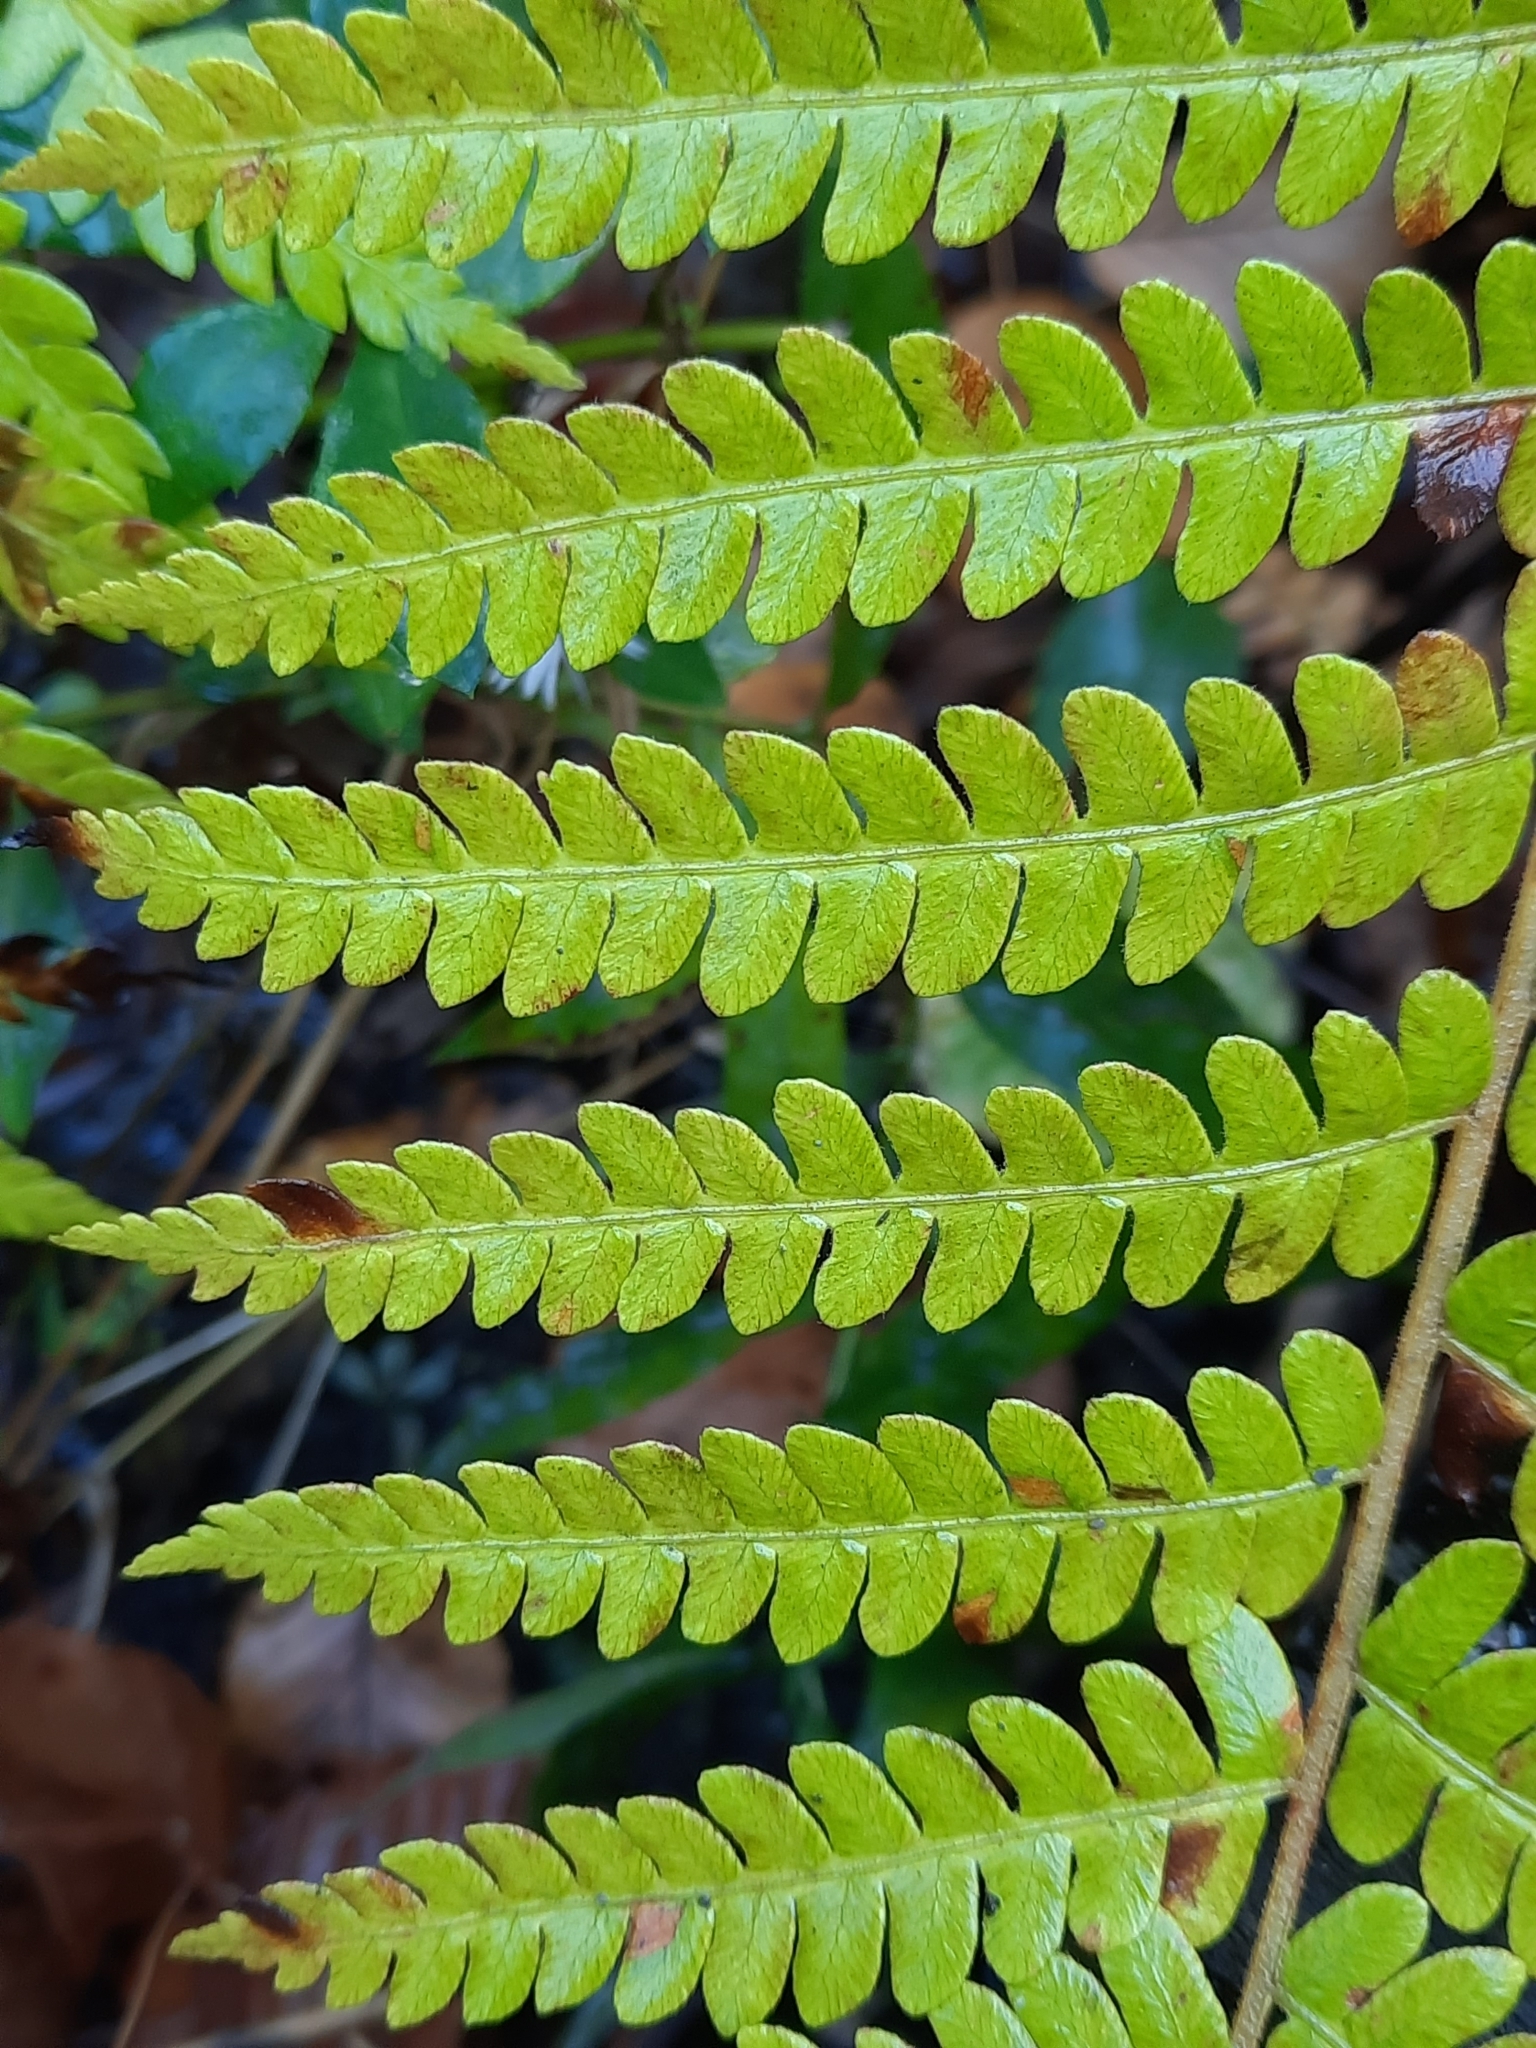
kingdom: Plantae
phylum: Tracheophyta
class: Polypodiopsida
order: Osmundales
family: Osmundaceae
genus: Osmundastrum
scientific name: Osmundastrum cinnamomeum
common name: Cinnamon fern
